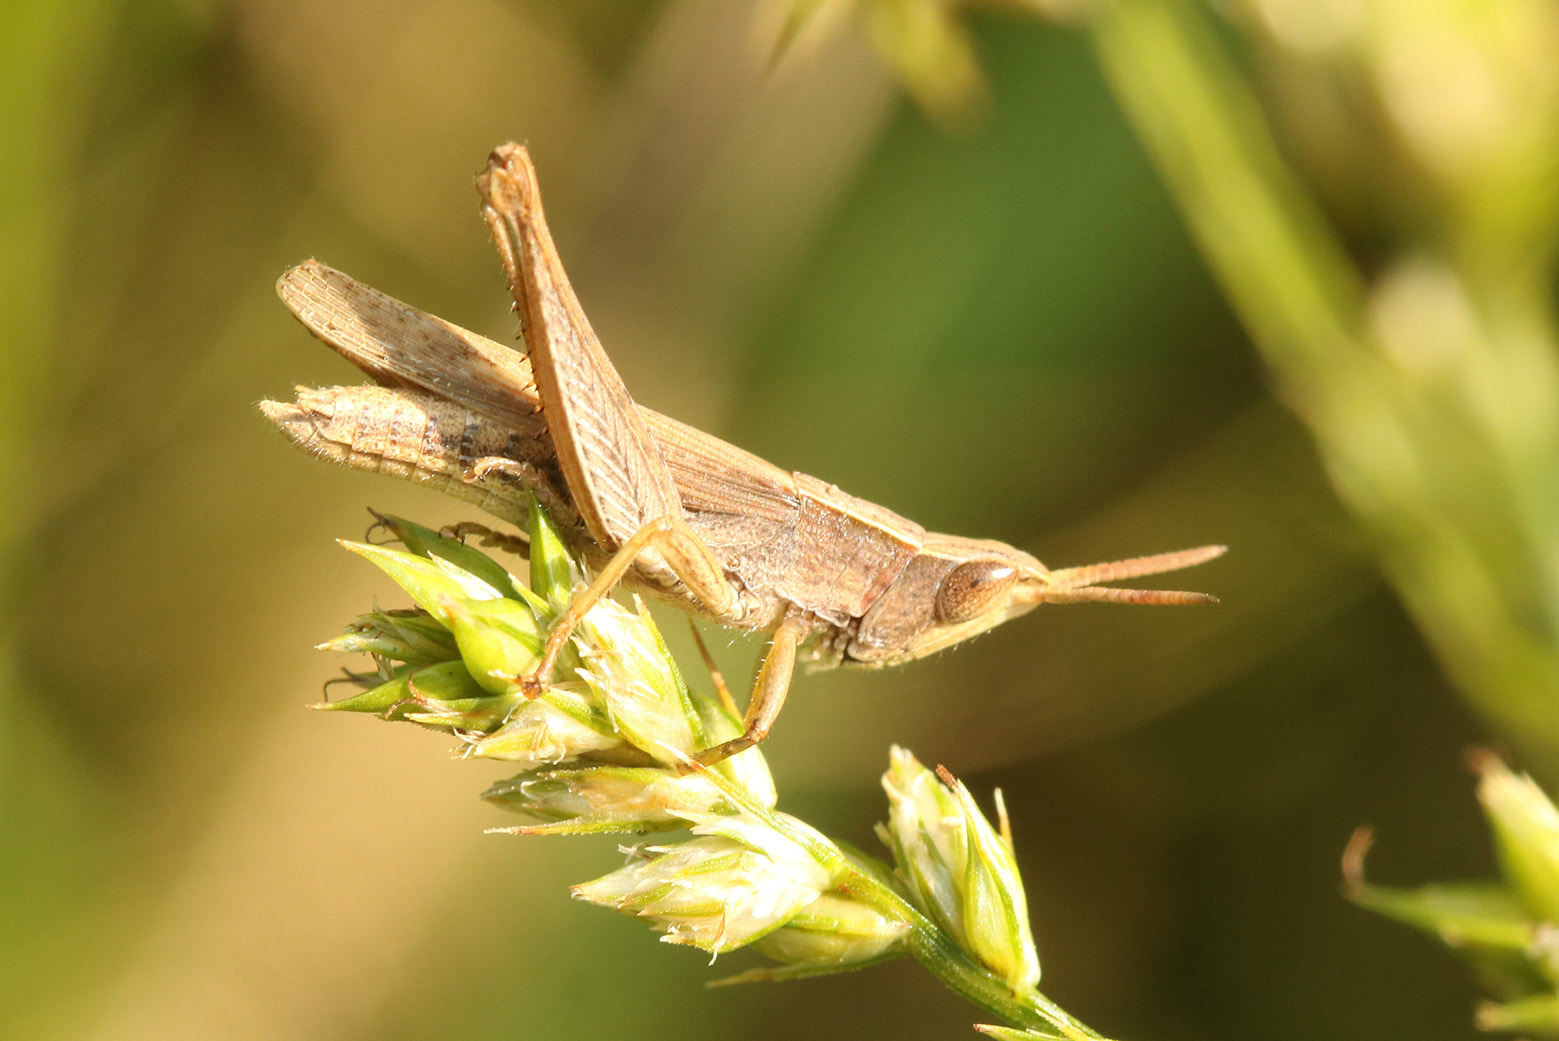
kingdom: Animalia
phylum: Arthropoda
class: Insecta
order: Orthoptera
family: Acrididae
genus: Laplatacris
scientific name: Laplatacris dispar
